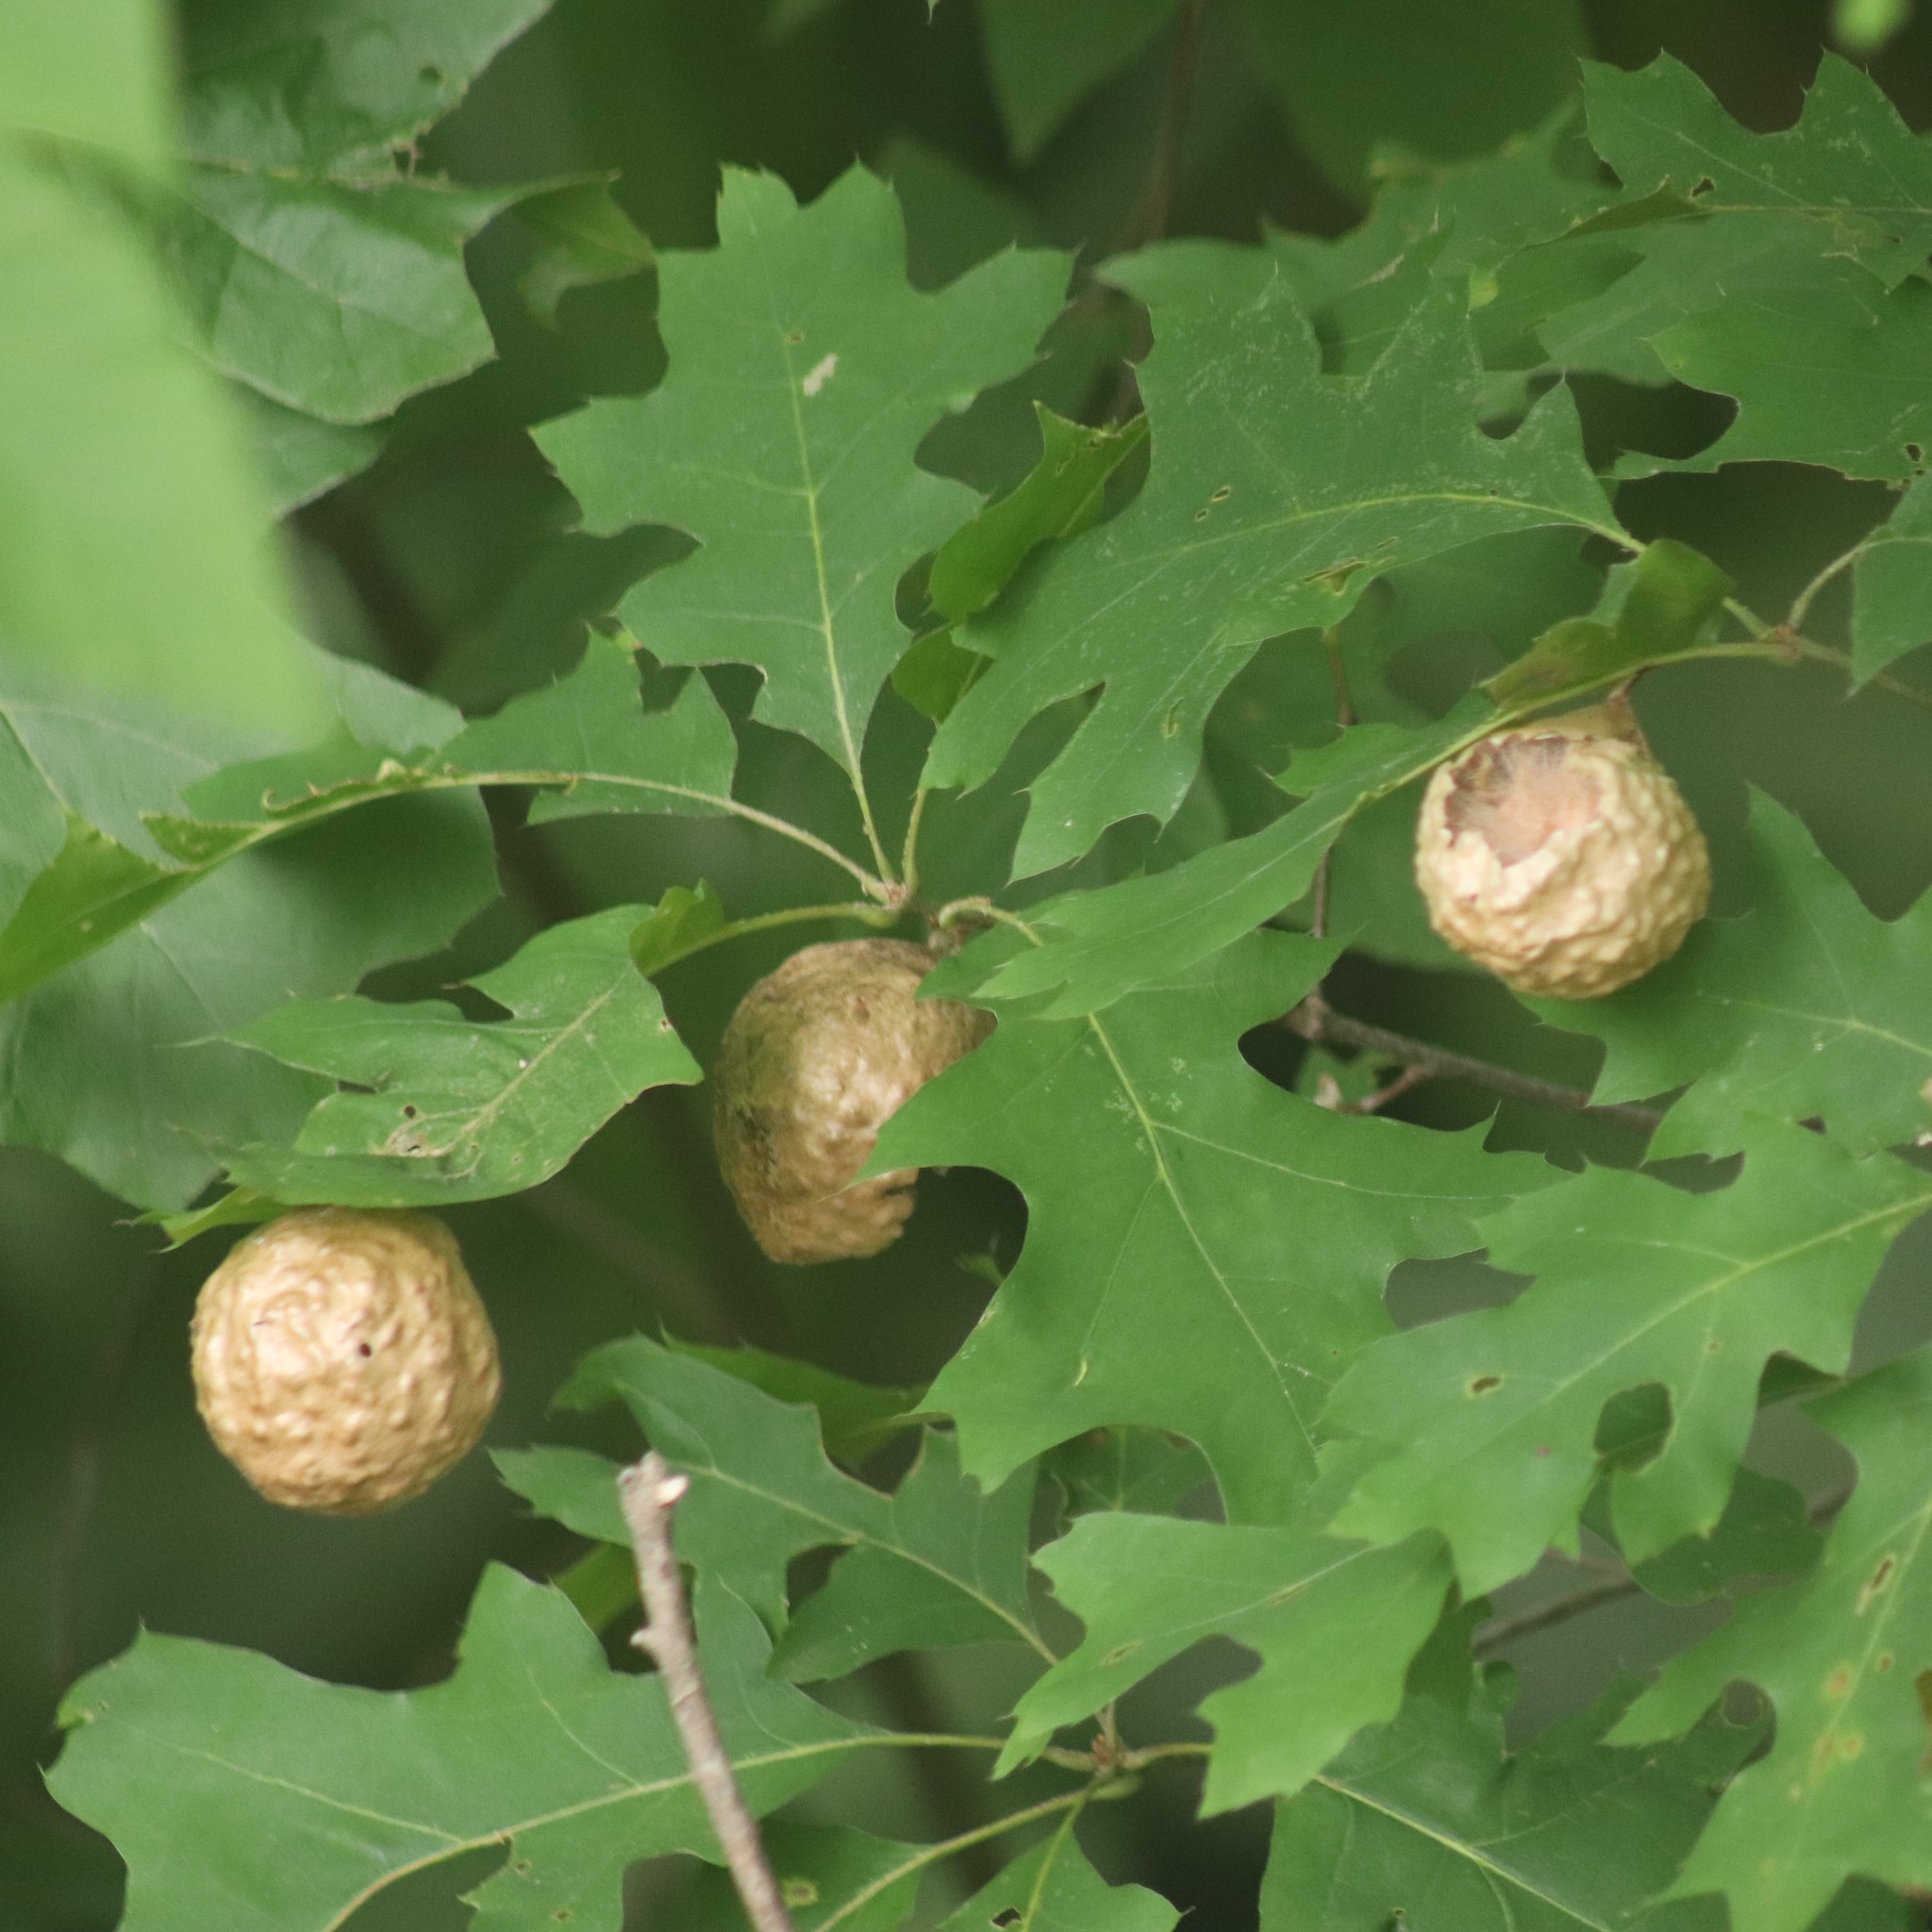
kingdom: Animalia
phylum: Arthropoda
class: Insecta
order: Hymenoptera
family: Cynipidae
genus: Amphibolips
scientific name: Amphibolips
